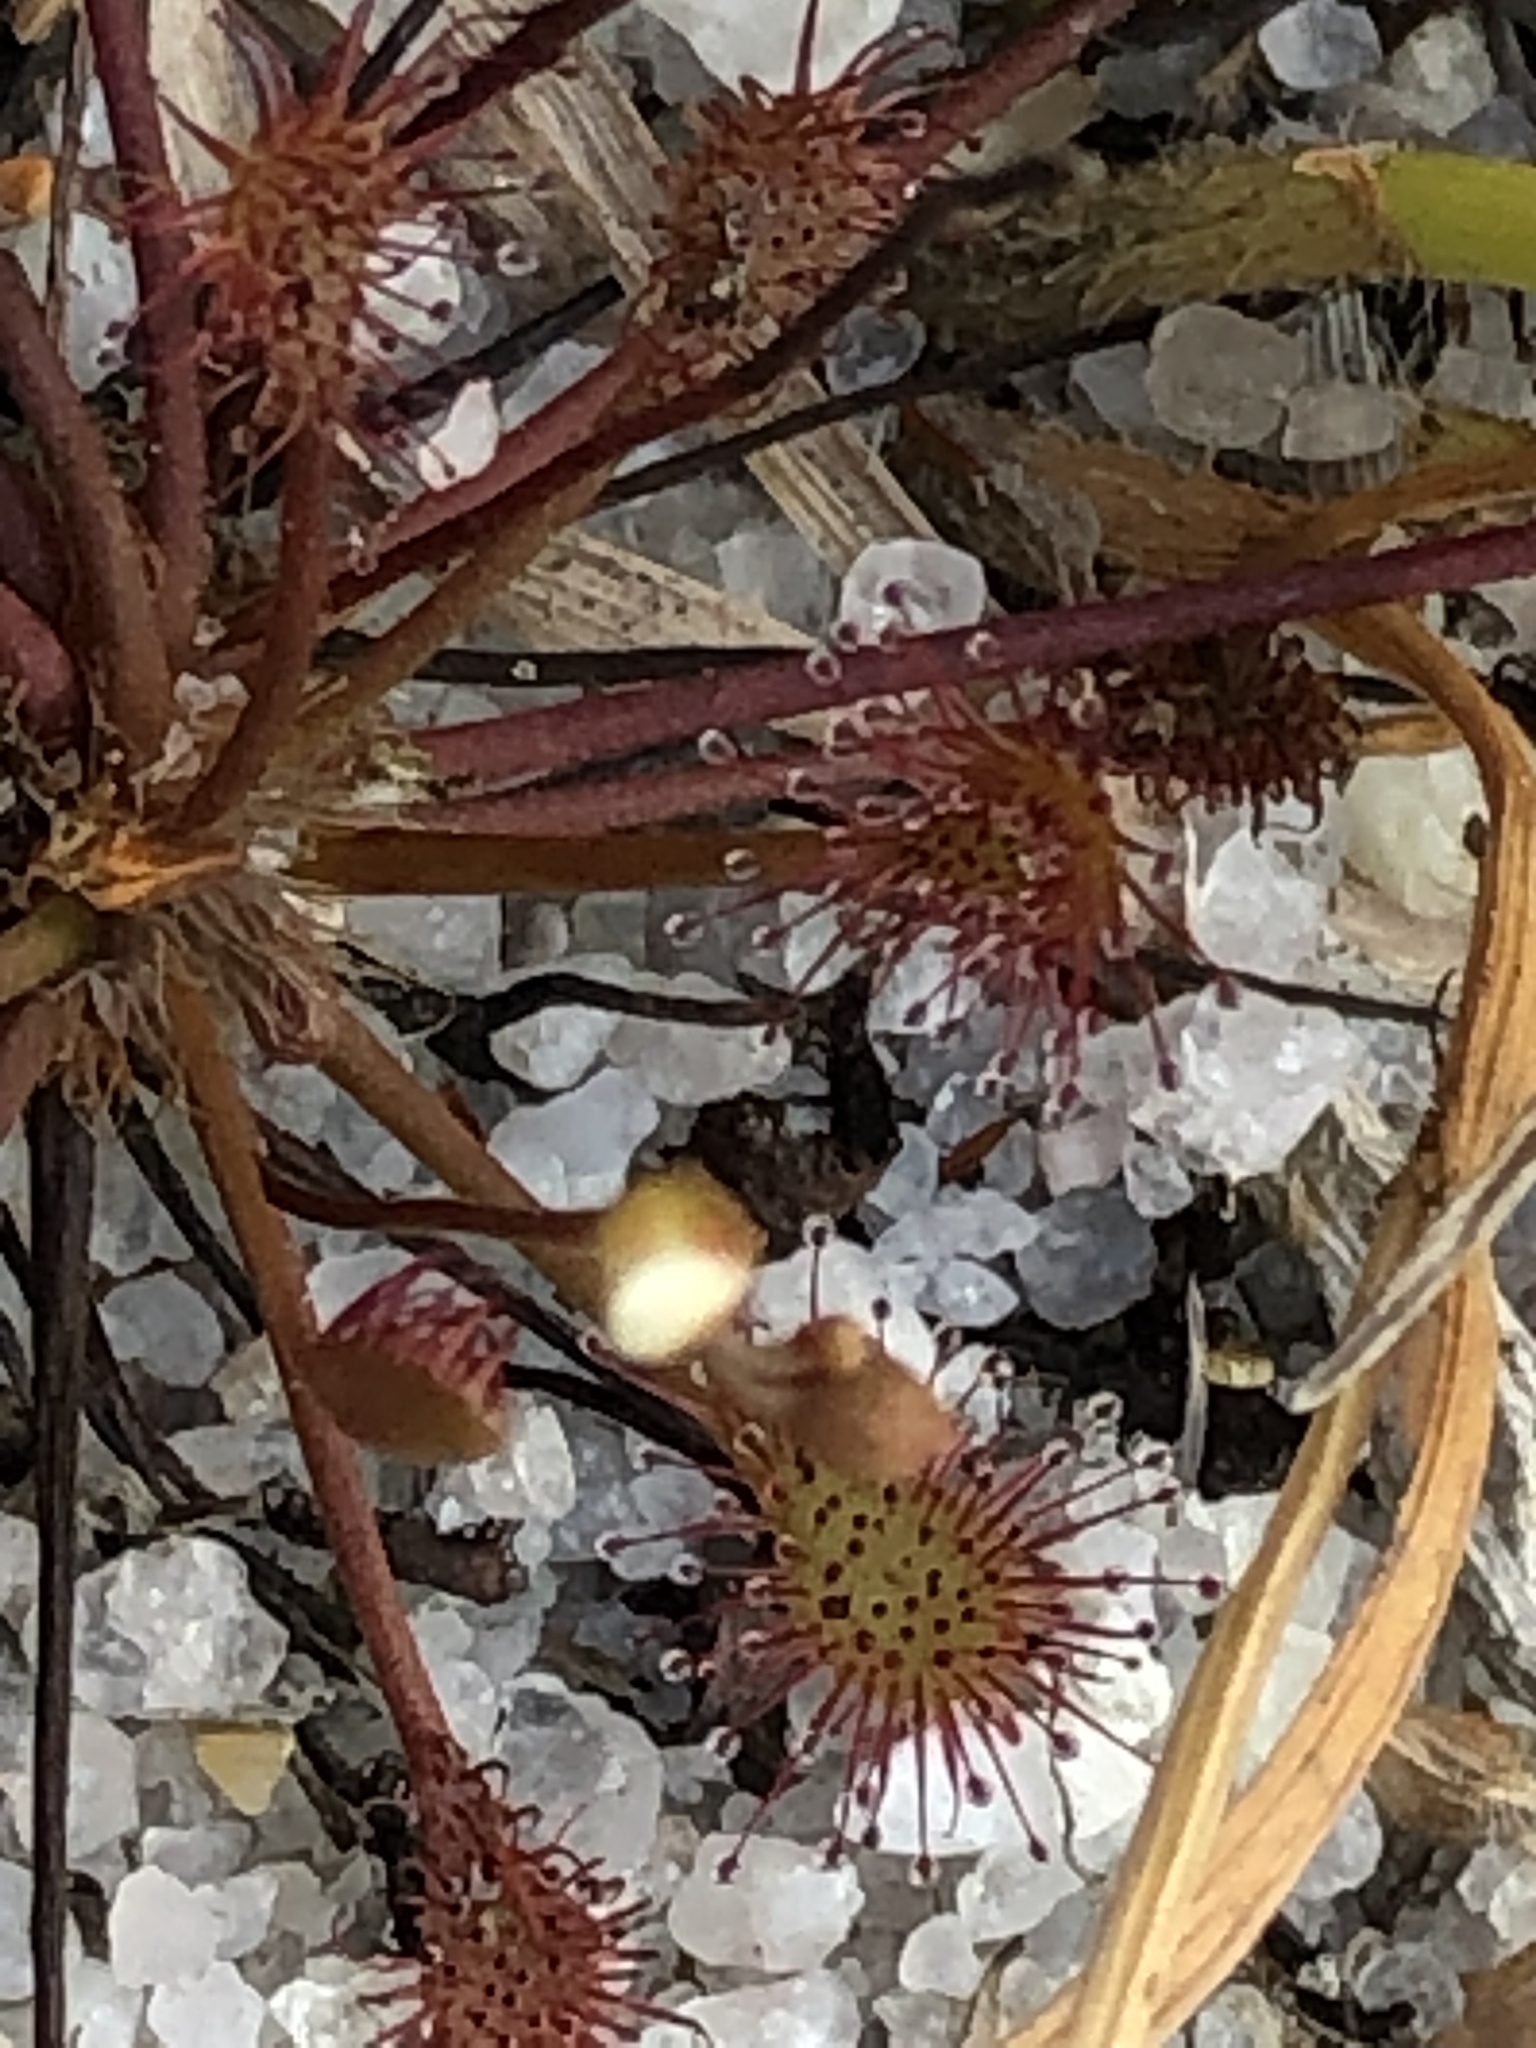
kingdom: Plantae
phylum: Tracheophyta
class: Magnoliopsida
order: Caryophyllales
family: Droseraceae
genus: Drosera
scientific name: Drosera intermedia
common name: Oblong-leaved sundew
